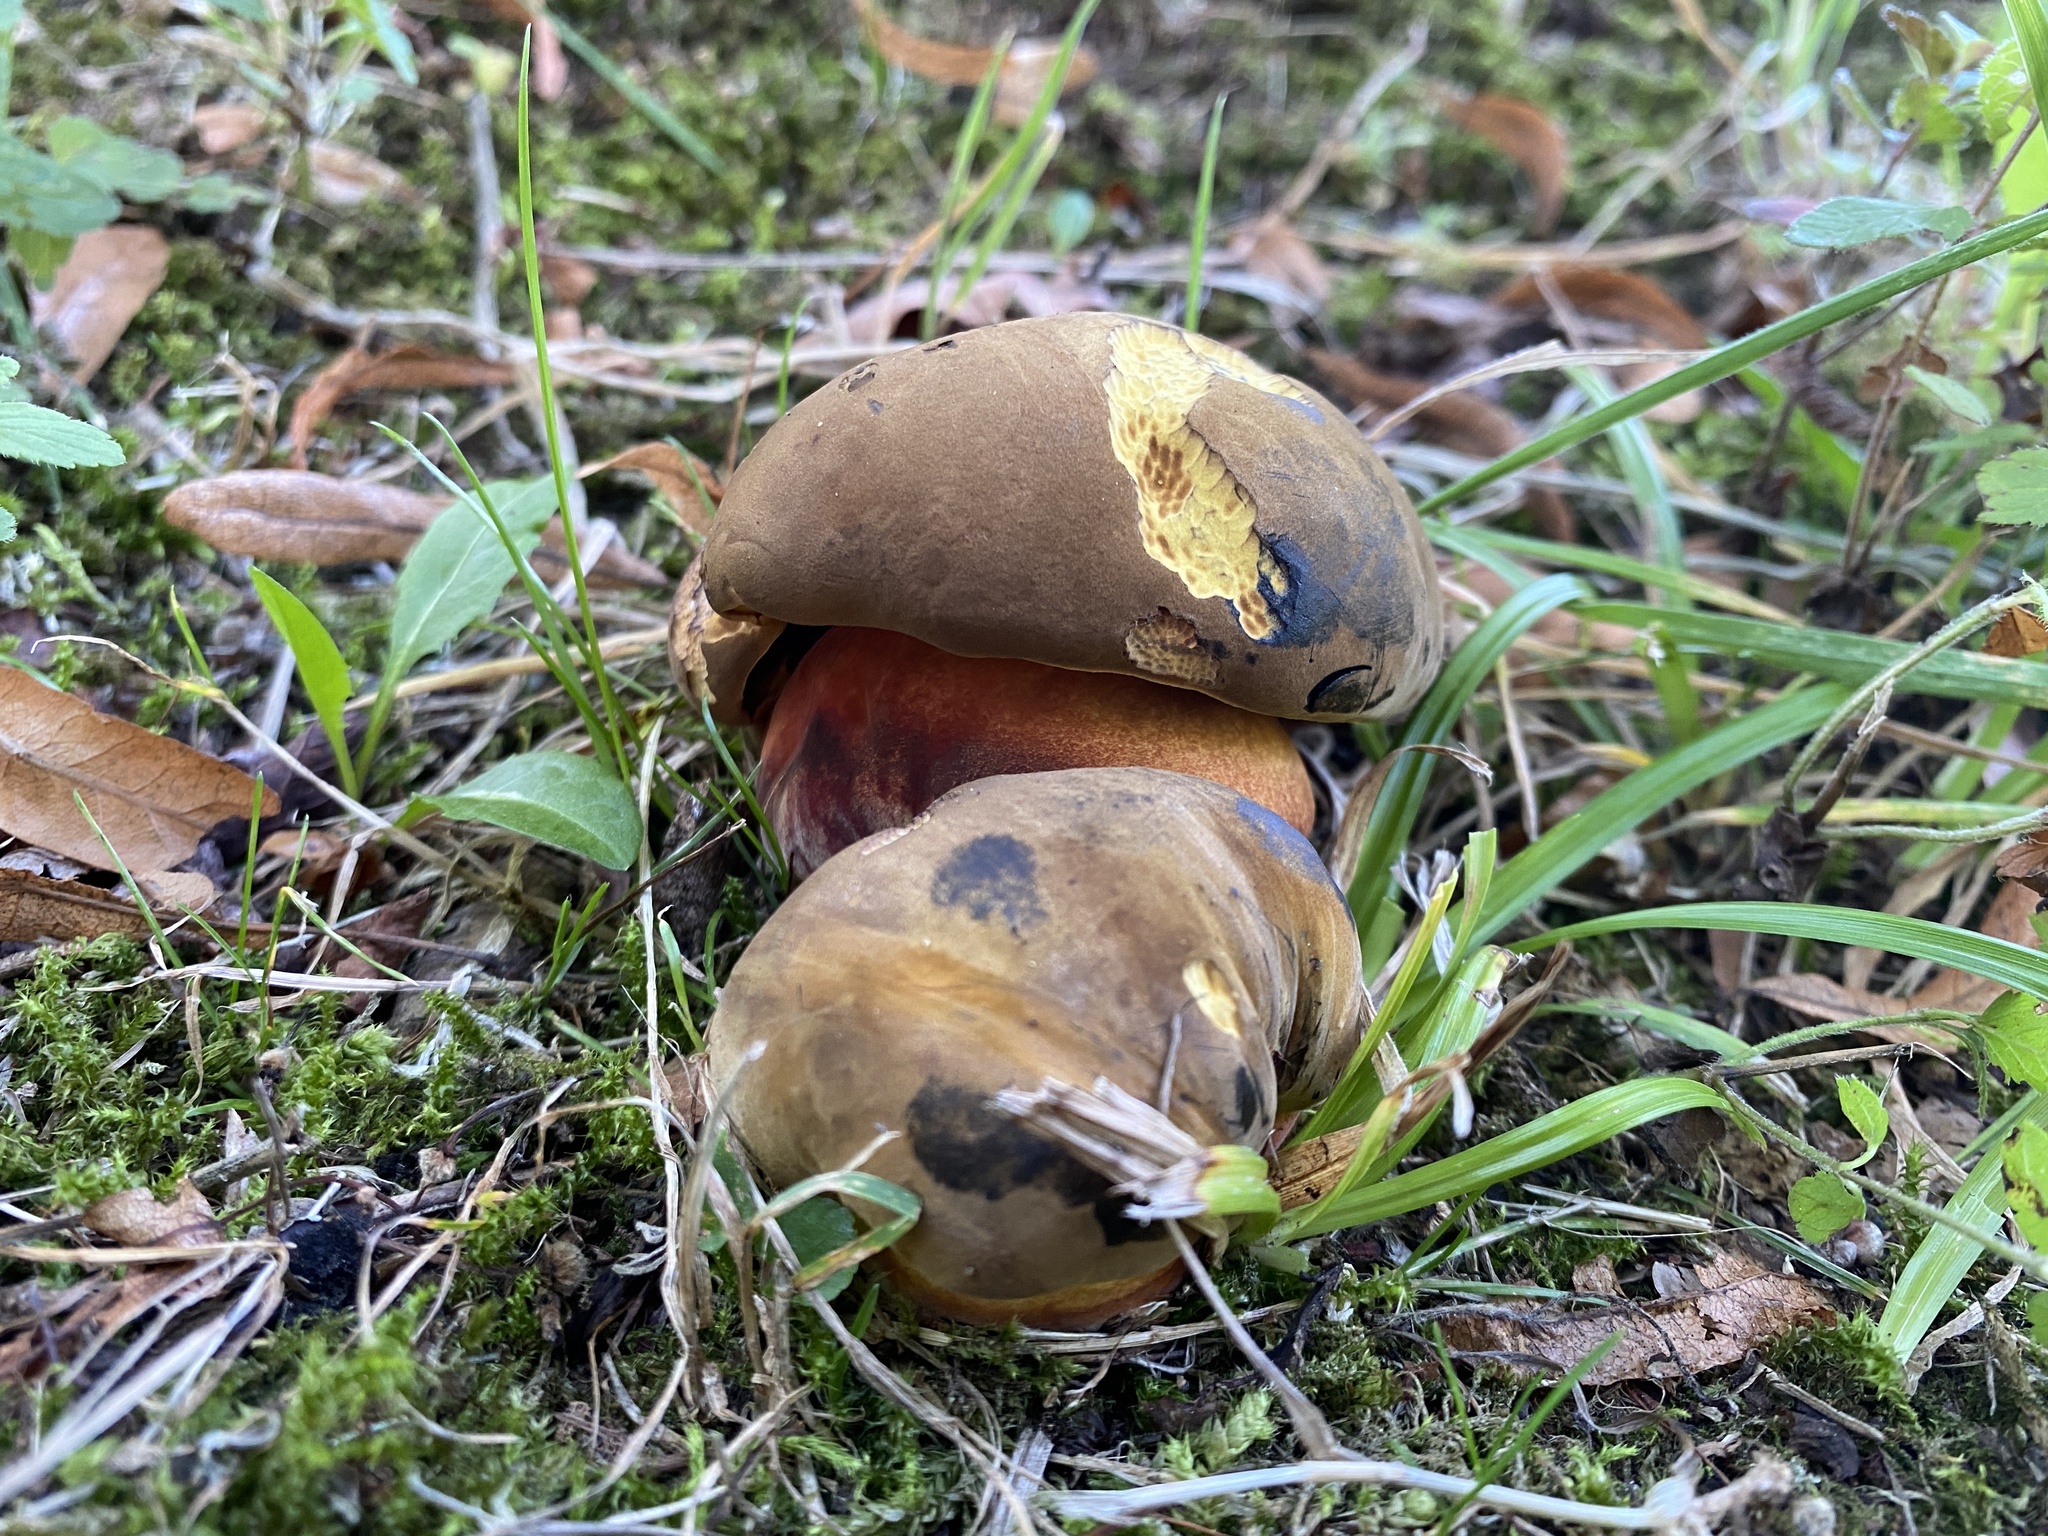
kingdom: Fungi
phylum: Basidiomycota
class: Agaricomycetes
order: Boletales
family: Boletaceae
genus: Neoboletus
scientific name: Neoboletus erythropus
